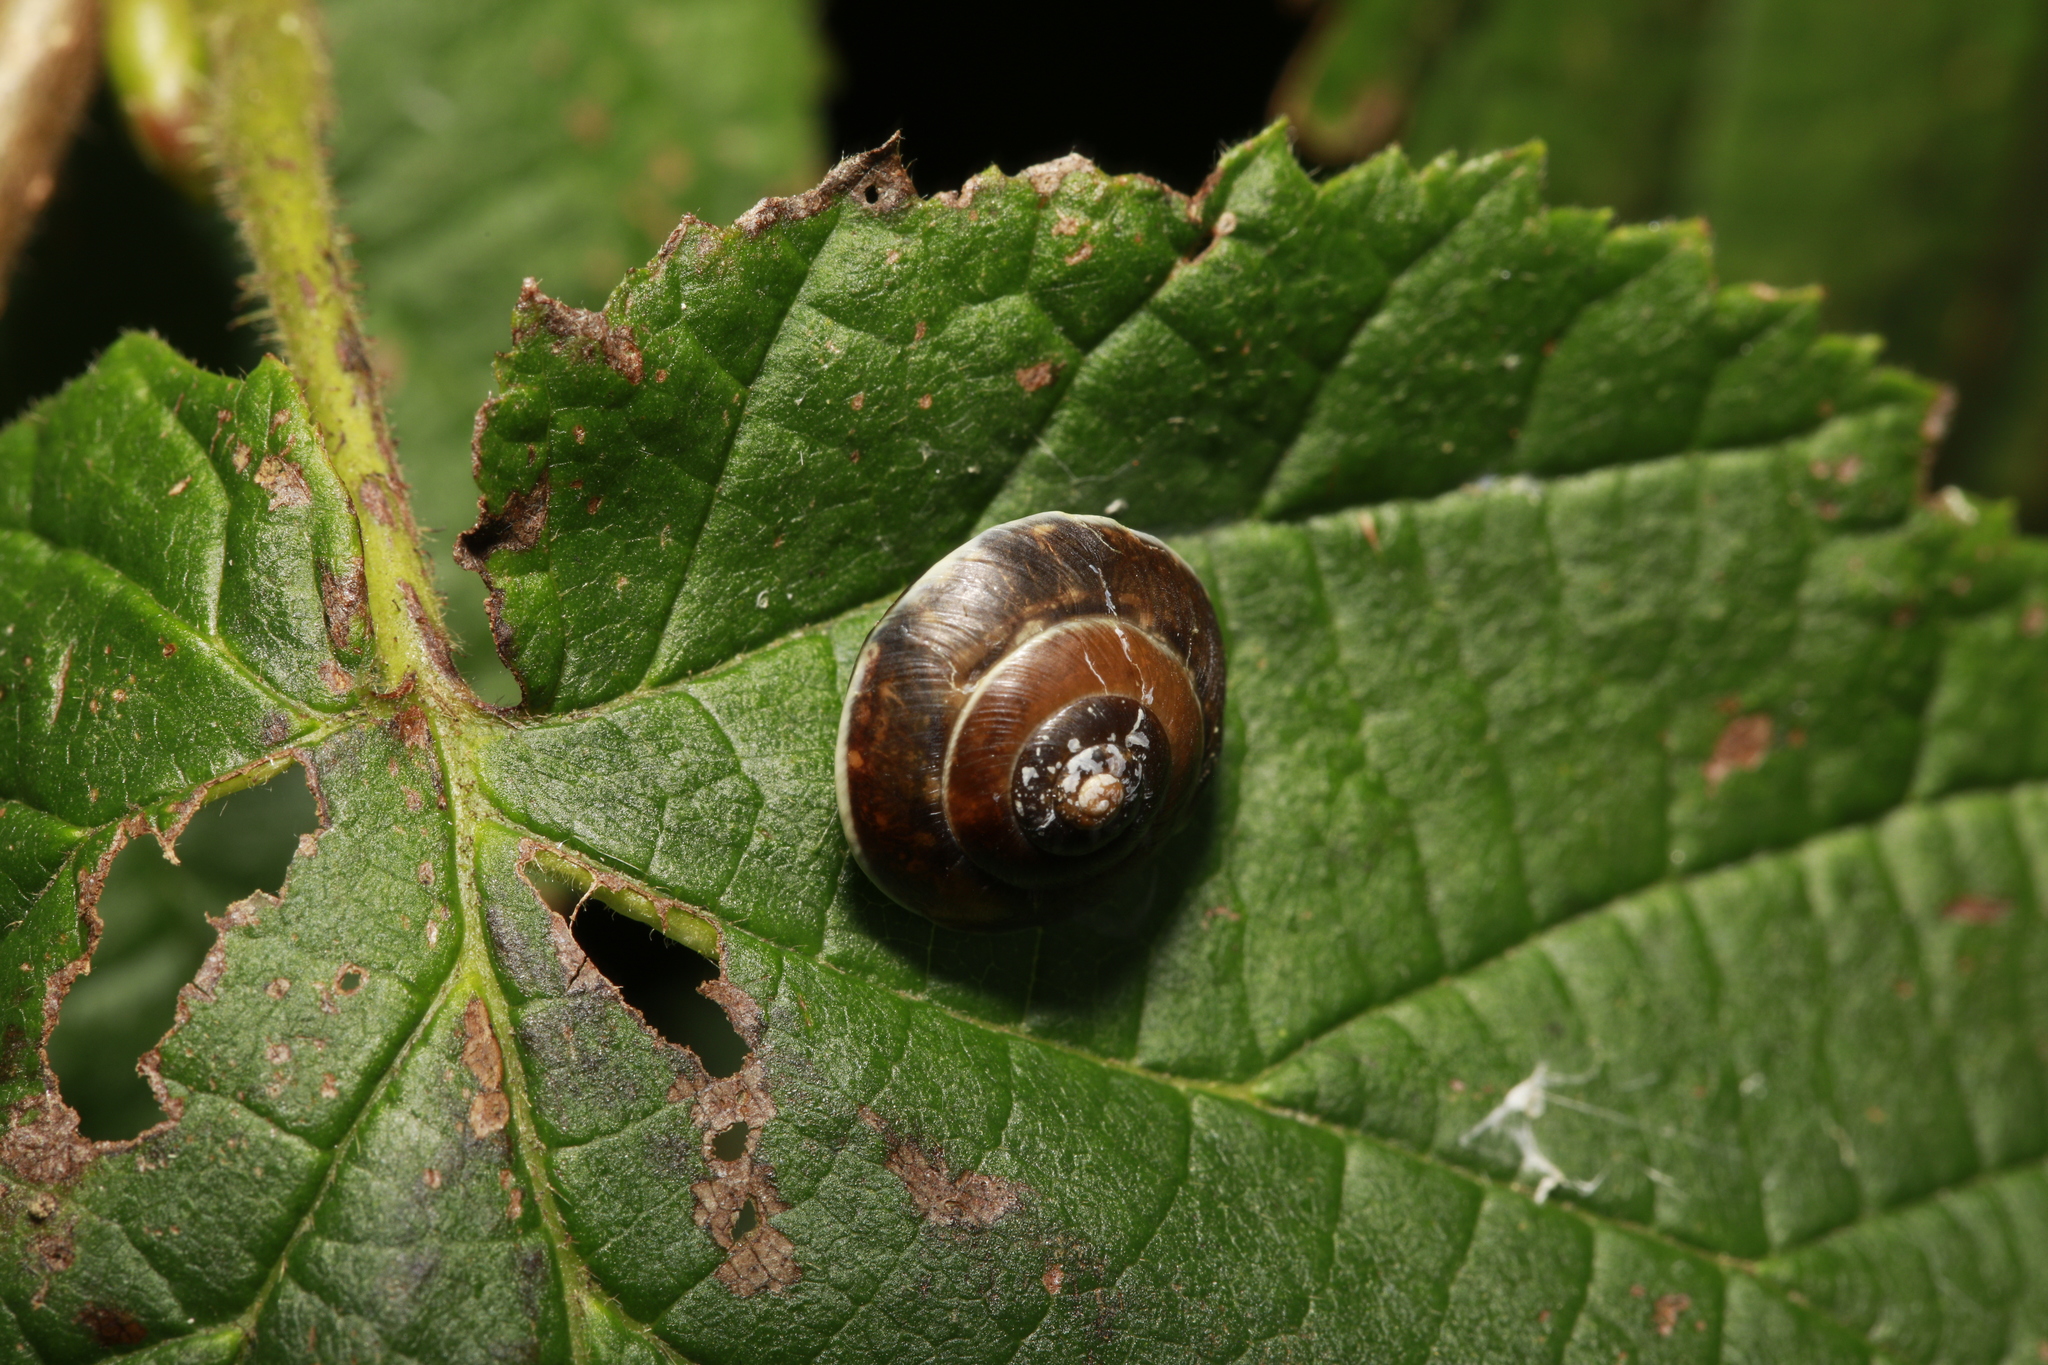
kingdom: Animalia
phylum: Mollusca
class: Gastropoda
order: Stylommatophora
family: Hygromiidae
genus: Hygromia
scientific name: Hygromia cinctella
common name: Girdled snail
